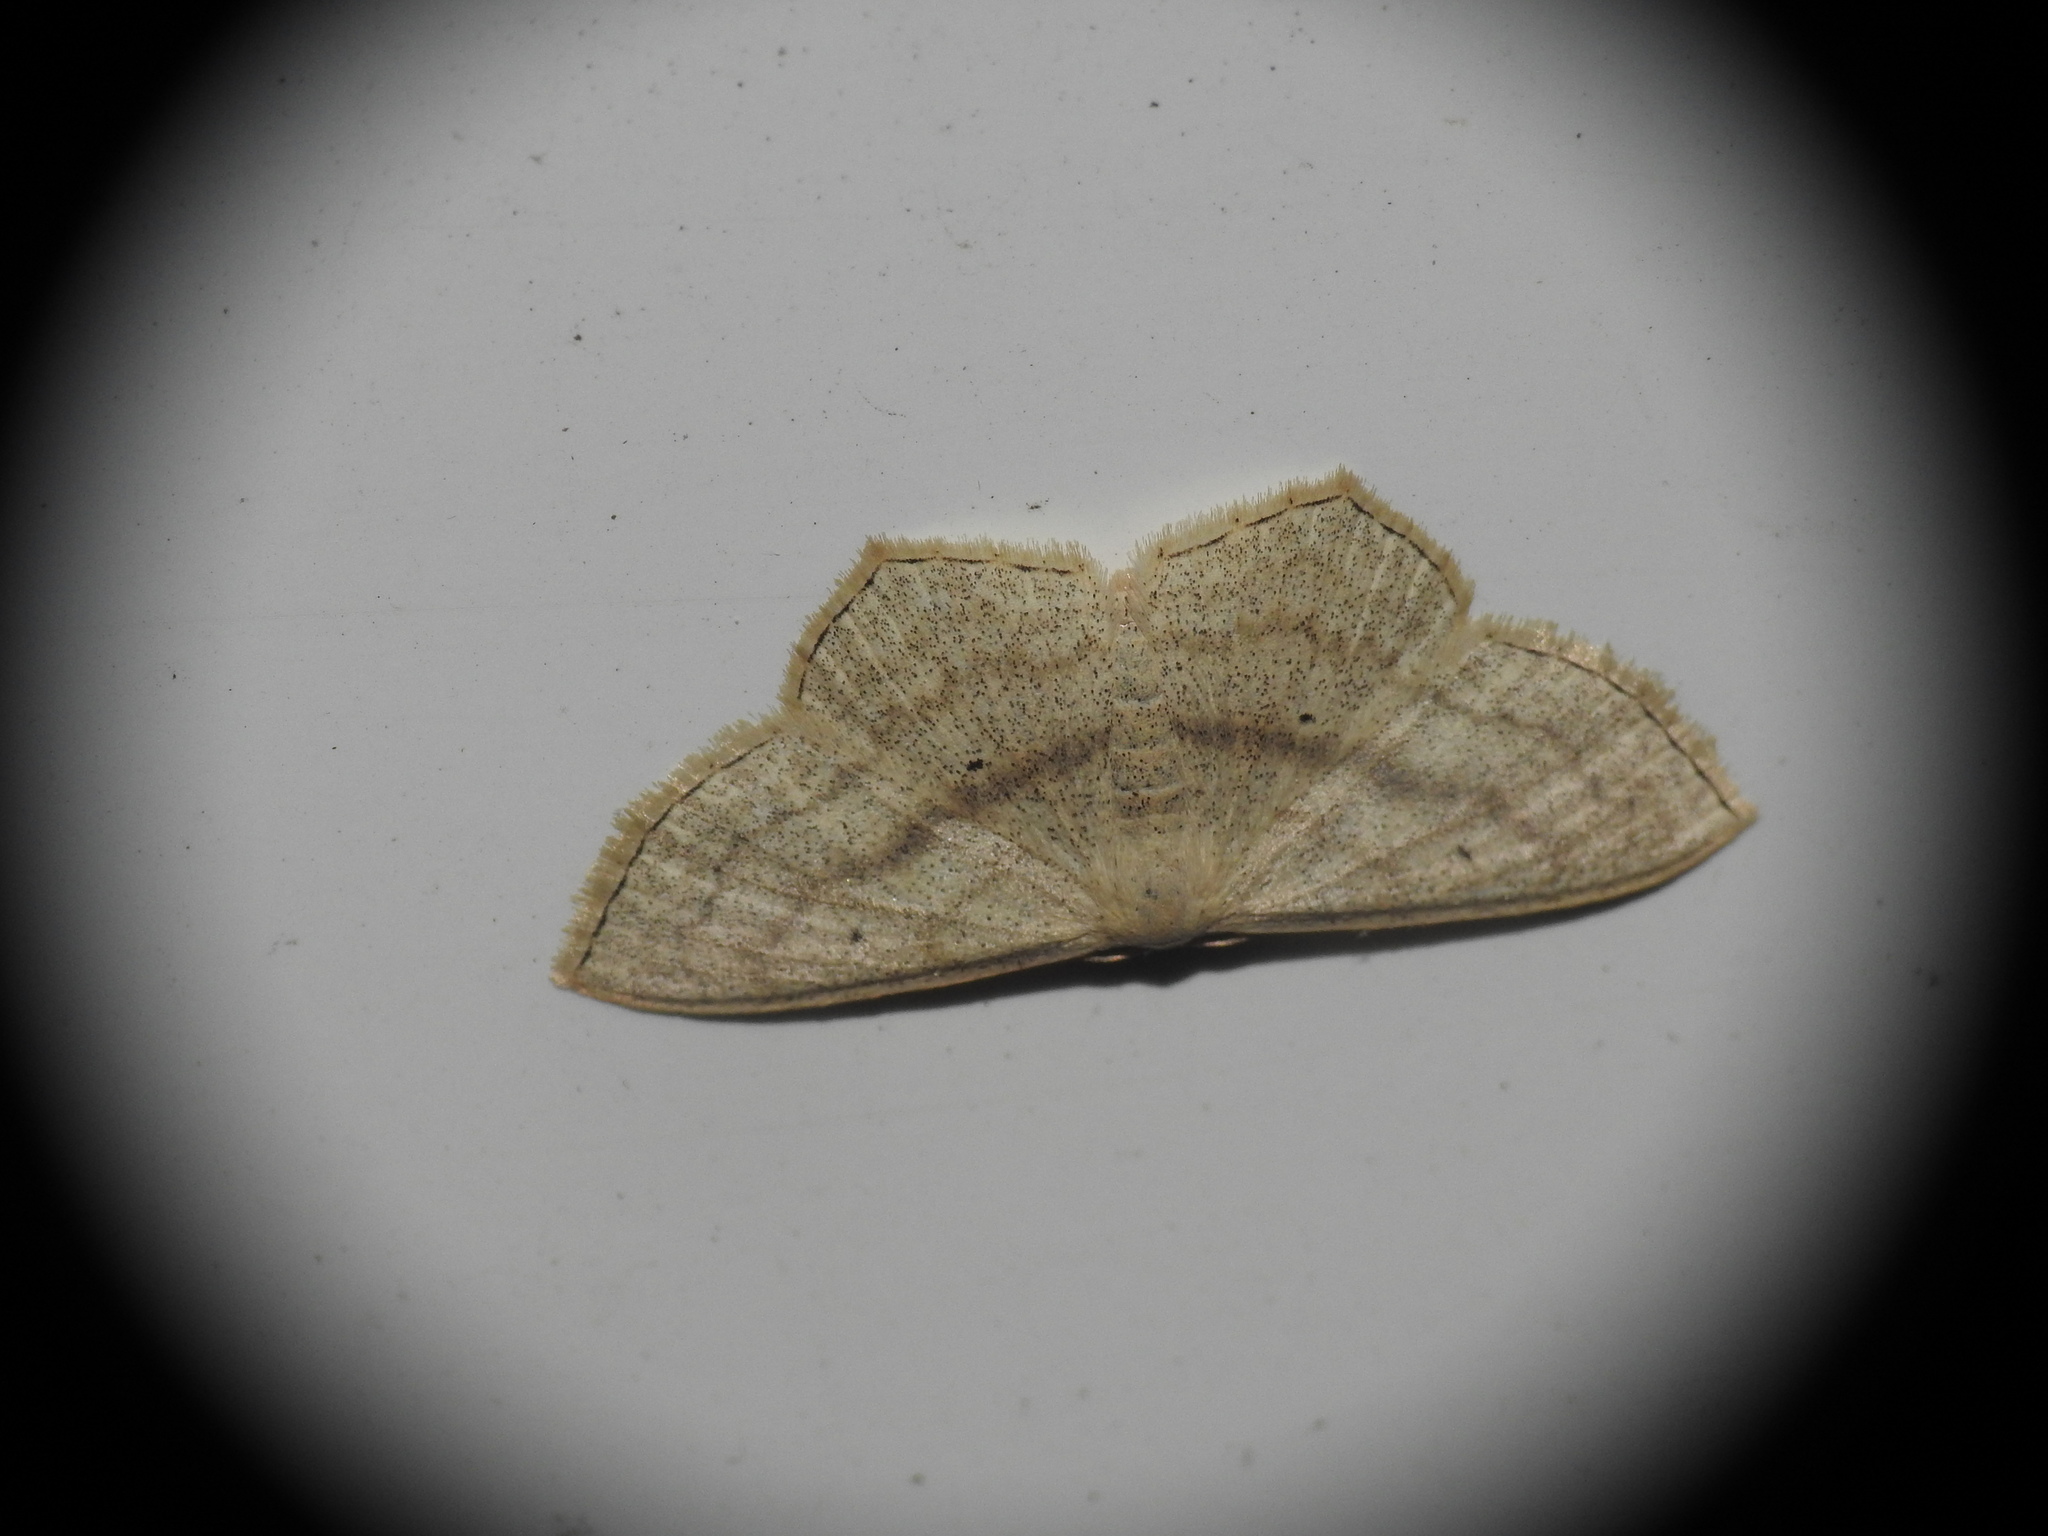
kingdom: Animalia
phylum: Arthropoda
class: Insecta
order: Lepidoptera
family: Geometridae
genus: Scopula
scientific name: Scopula nigropunctata
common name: Sub-angled wave
